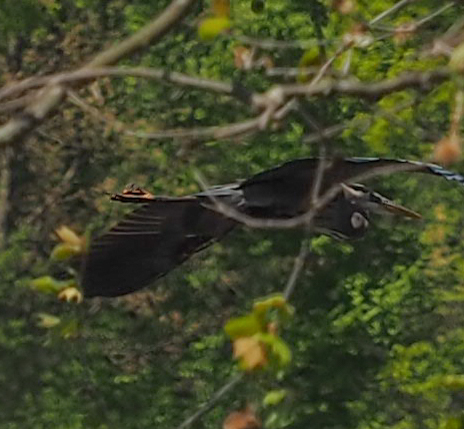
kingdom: Animalia
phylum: Chordata
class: Aves
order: Pelecaniformes
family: Ardeidae
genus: Ardea
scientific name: Ardea herodias
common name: Great blue heron
